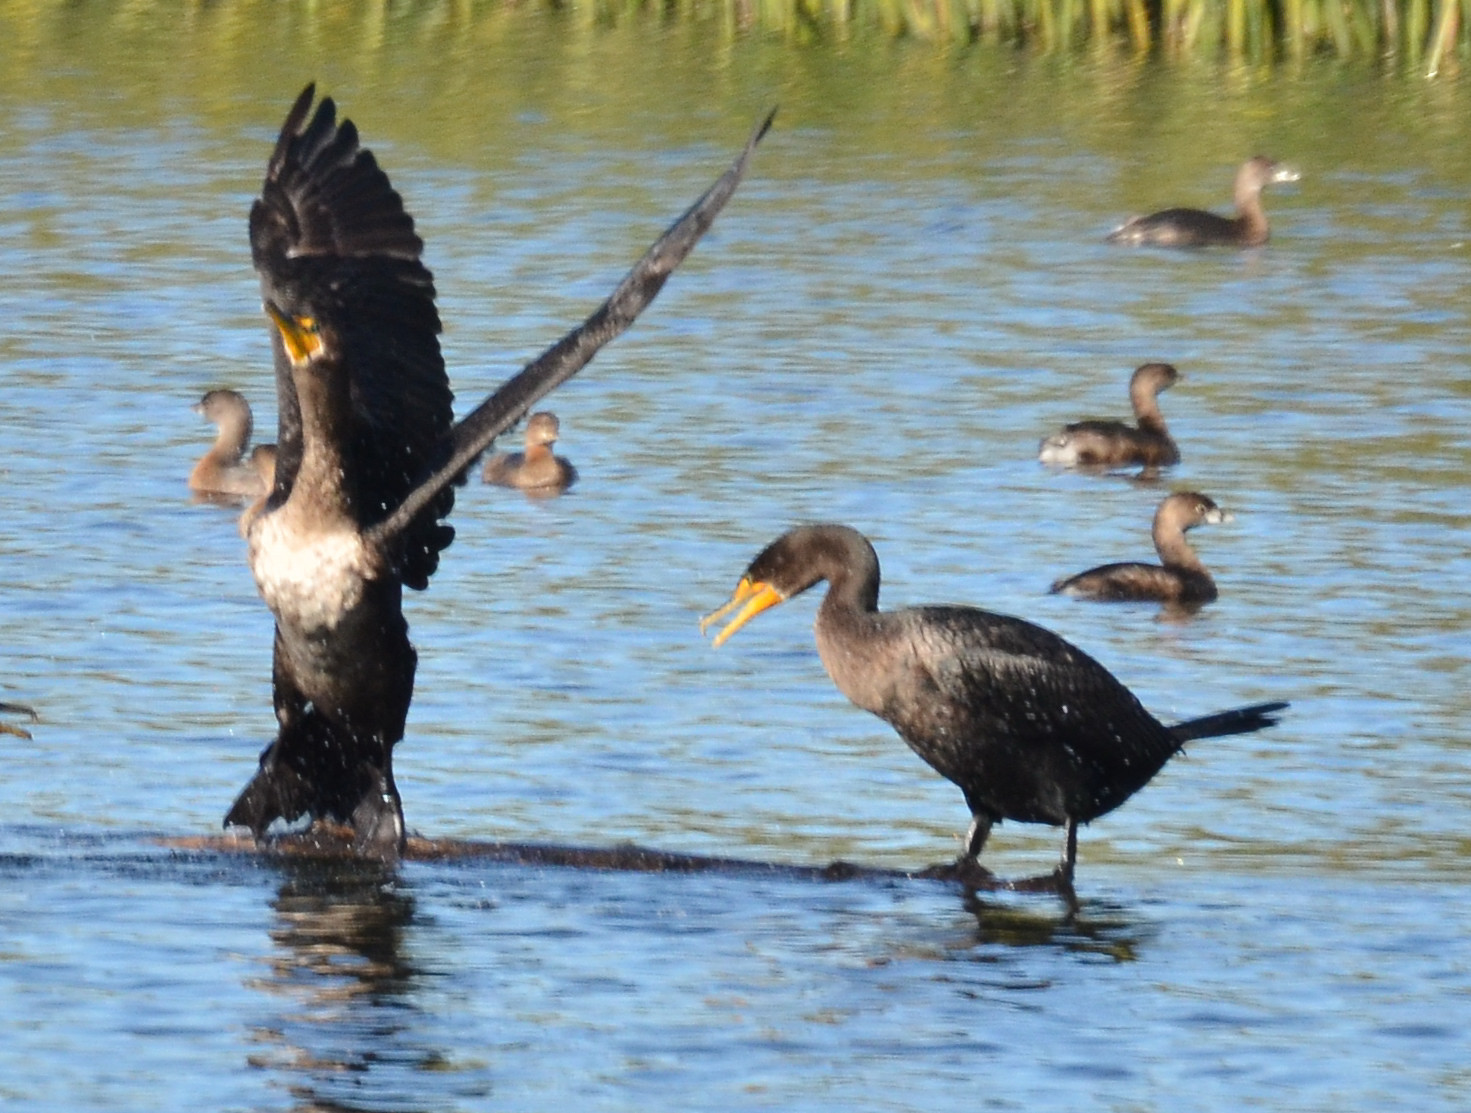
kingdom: Animalia
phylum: Chordata
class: Aves
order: Suliformes
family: Phalacrocoracidae
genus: Phalacrocorax
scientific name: Phalacrocorax auritus
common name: Double-crested cormorant
